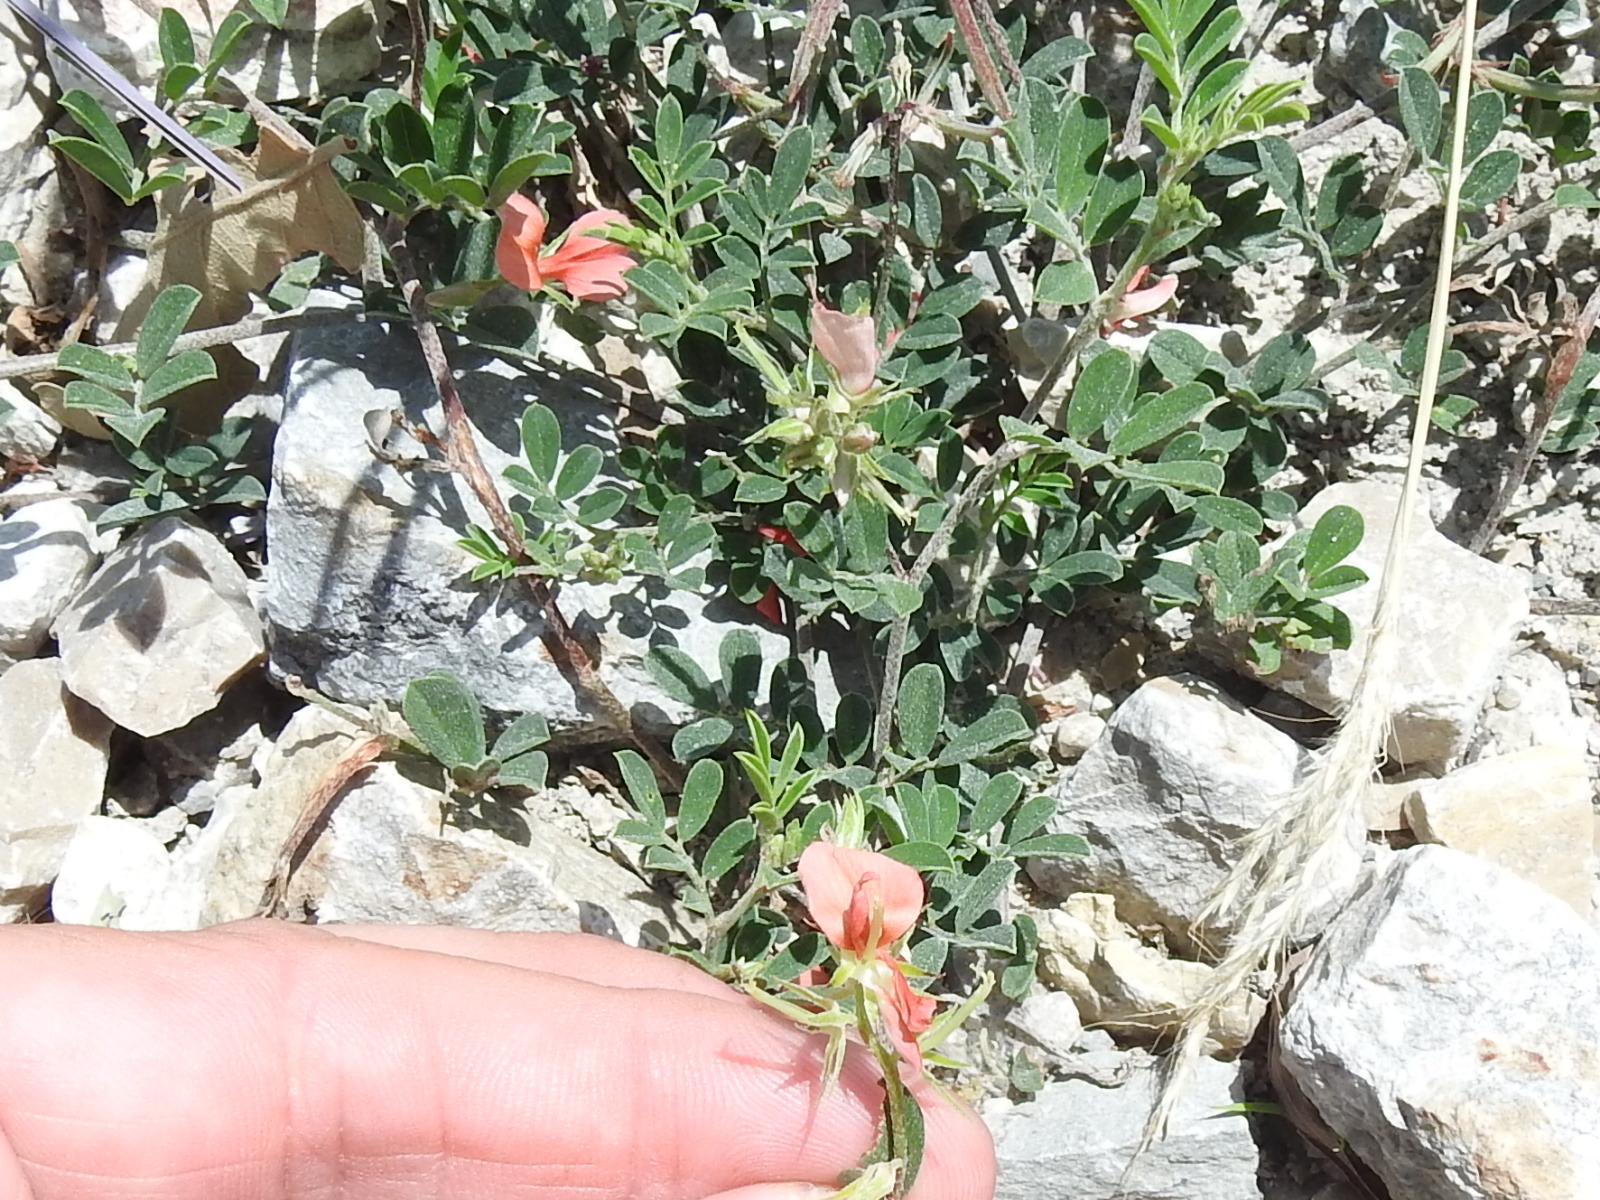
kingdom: Plantae
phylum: Tracheophyta
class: Magnoliopsida
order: Fabales
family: Fabaceae
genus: Indigofera
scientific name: Indigofera miniata
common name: Coast indigo
